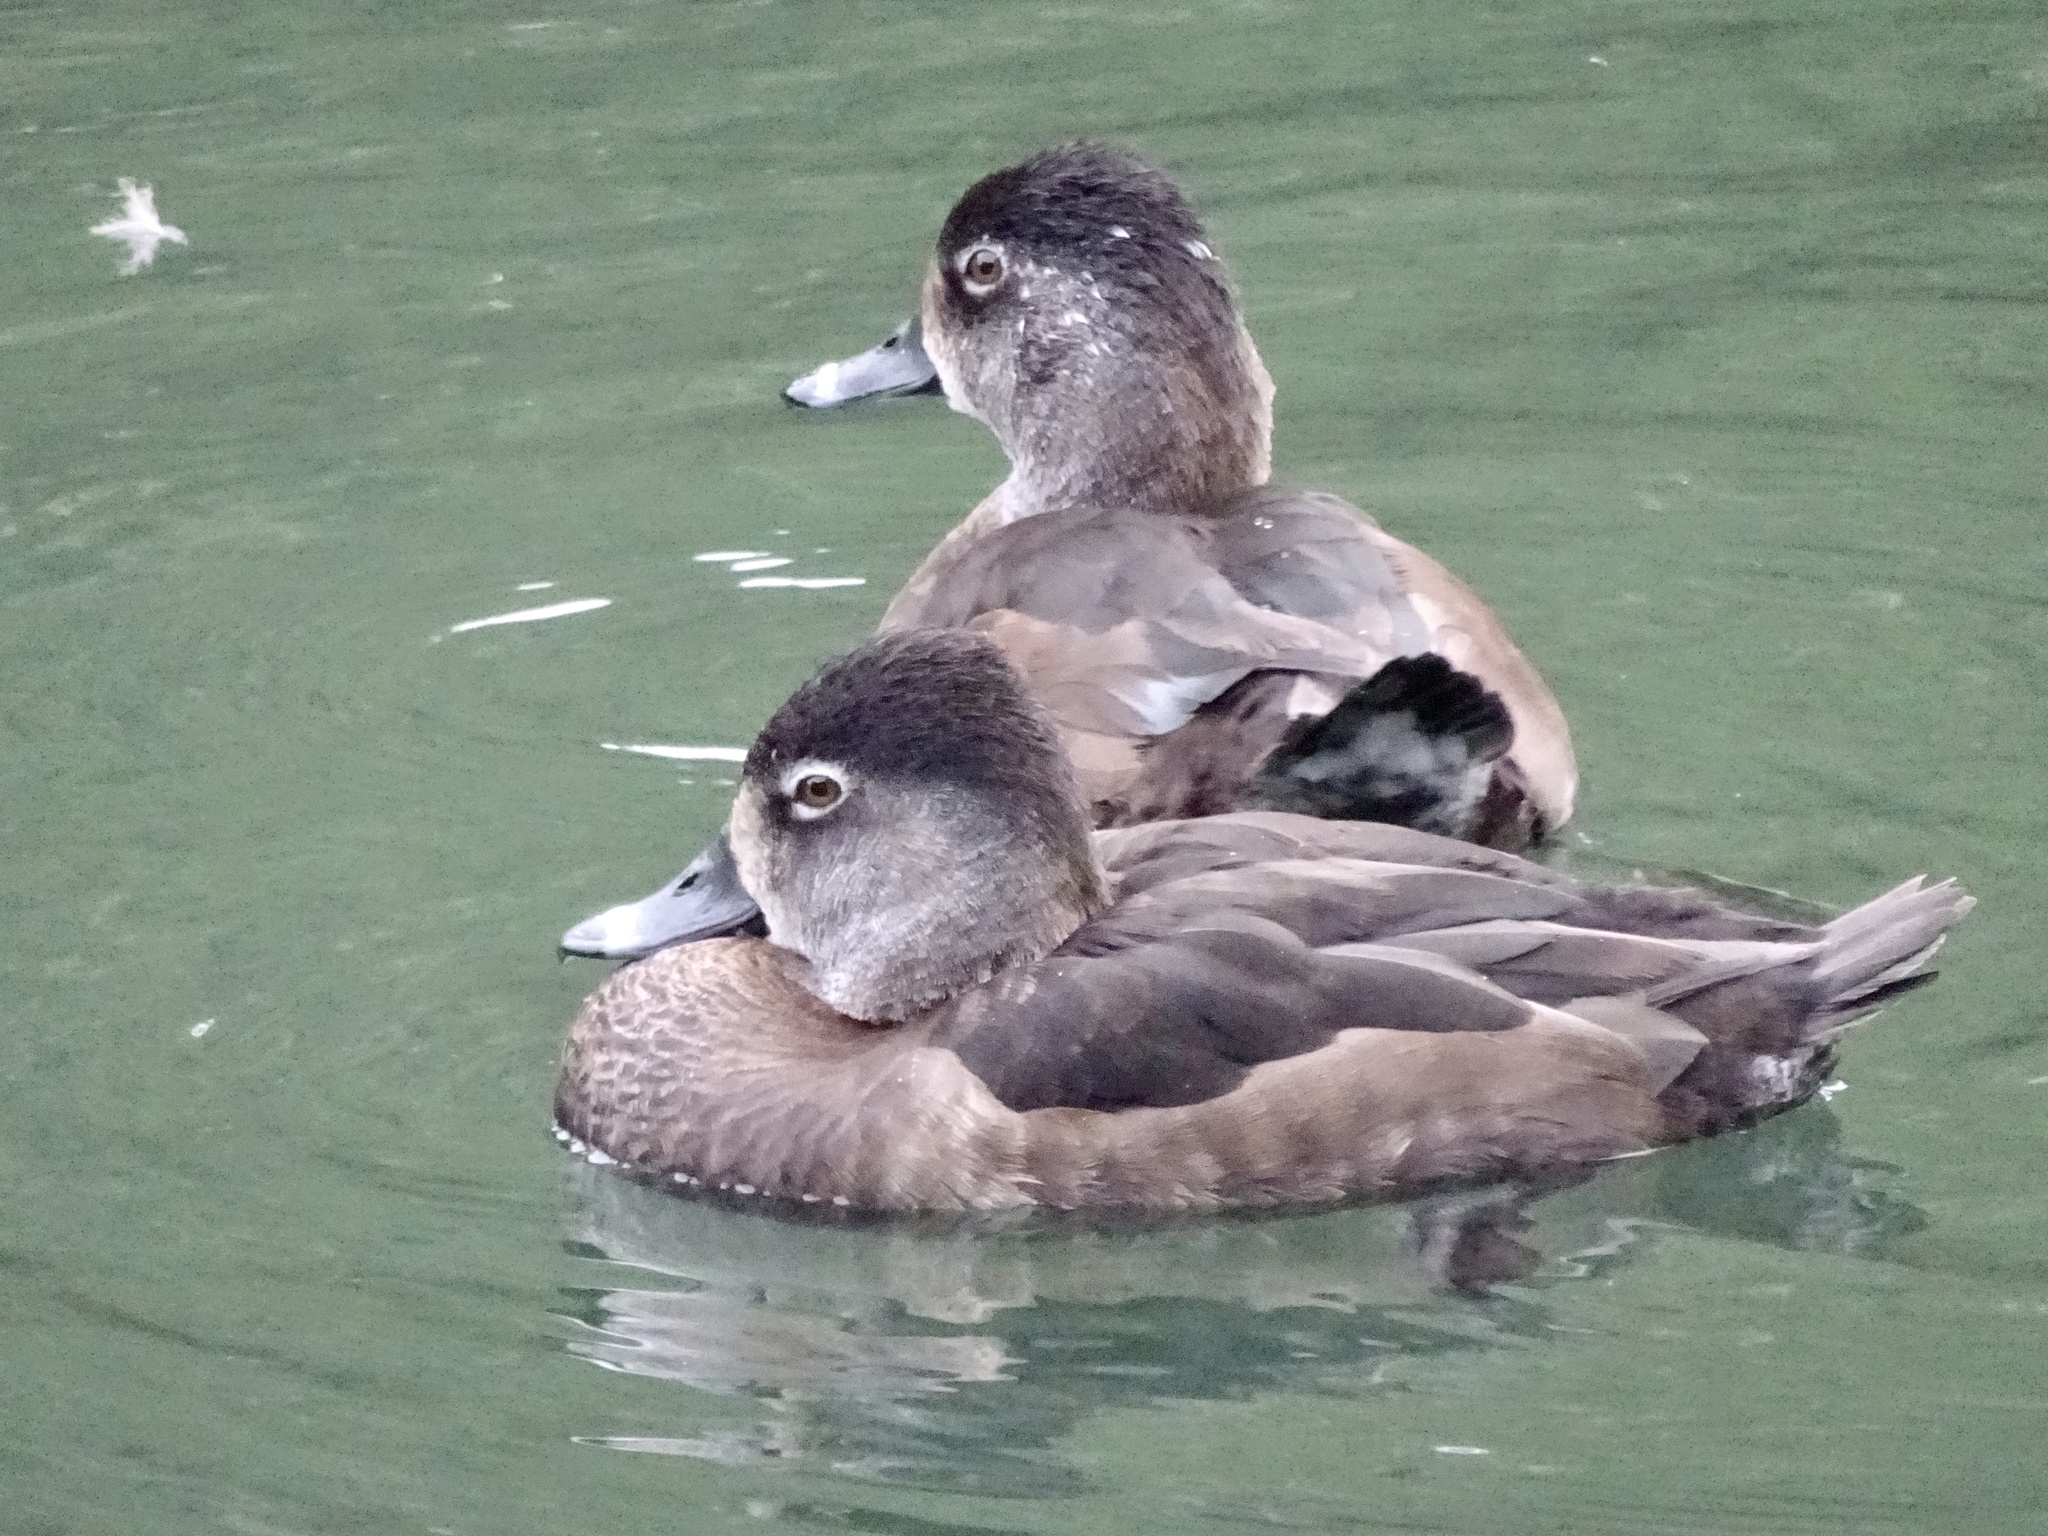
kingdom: Animalia
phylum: Chordata
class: Aves
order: Anseriformes
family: Anatidae
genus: Aythya
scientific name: Aythya collaris
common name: Ring-necked duck
